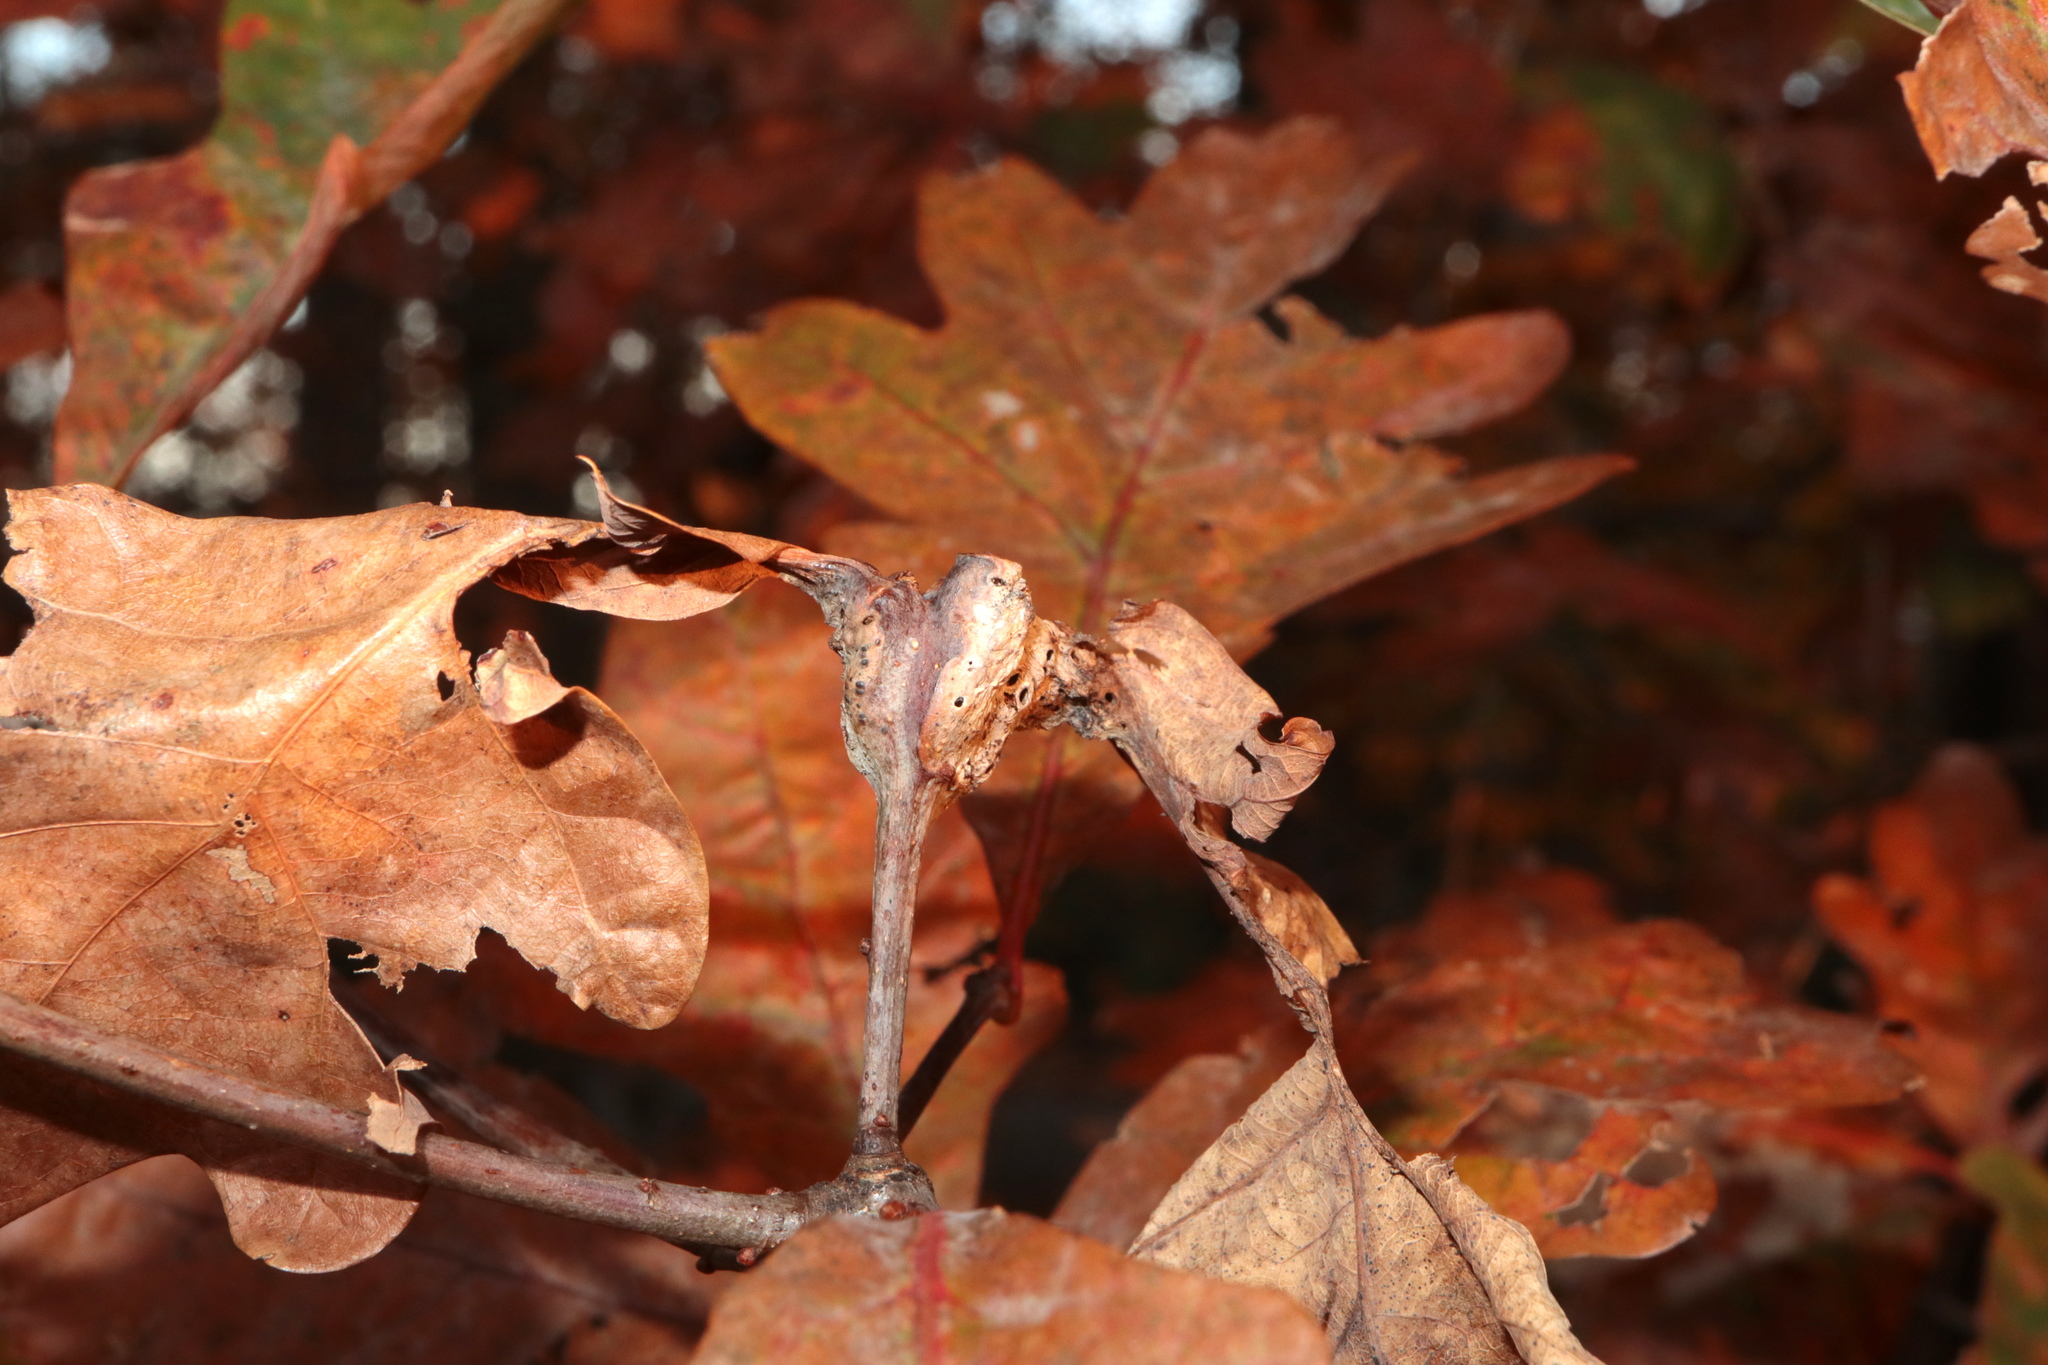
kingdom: Animalia
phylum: Arthropoda
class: Insecta
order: Hymenoptera
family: Cynipidae
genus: Neuroterus
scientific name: Neuroterus quercusbaccarum
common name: Common spangle gall
